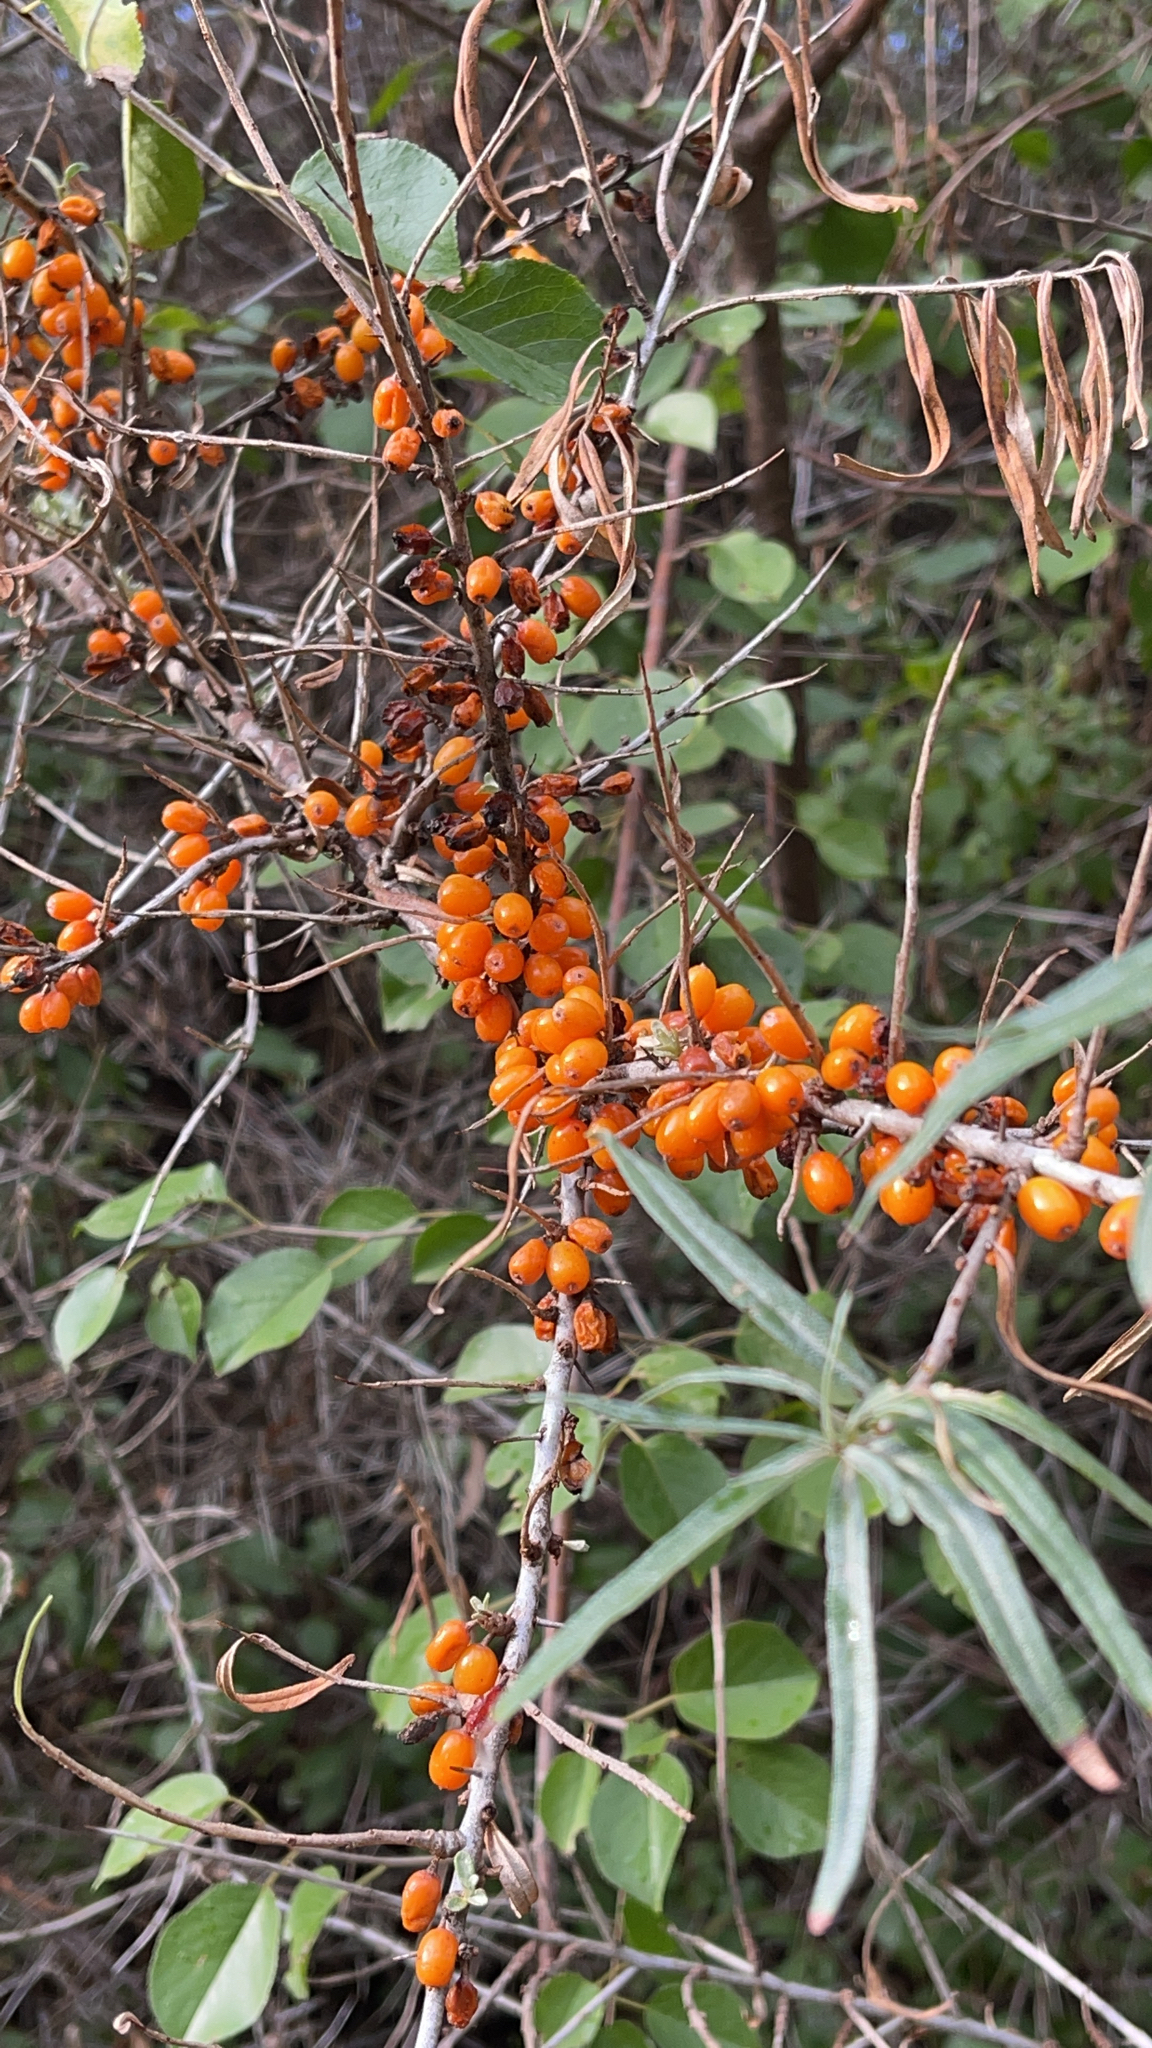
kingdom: Plantae
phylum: Tracheophyta
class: Magnoliopsida
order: Rosales
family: Elaeagnaceae
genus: Hippophae
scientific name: Hippophae rhamnoides
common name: Sea-buckthorn
